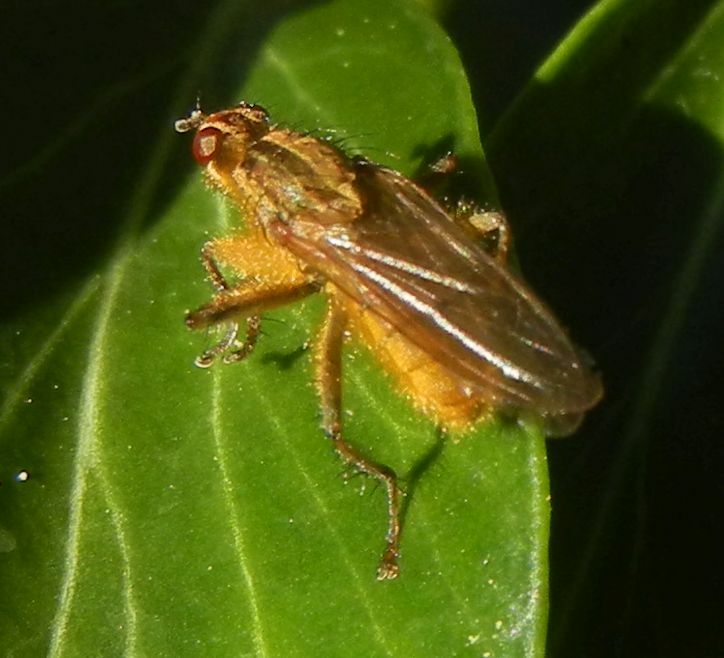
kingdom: Animalia
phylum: Arthropoda
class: Insecta
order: Diptera
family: Scathophagidae
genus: Scathophaga
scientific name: Scathophaga stercoraria
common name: Yellow dung fly
